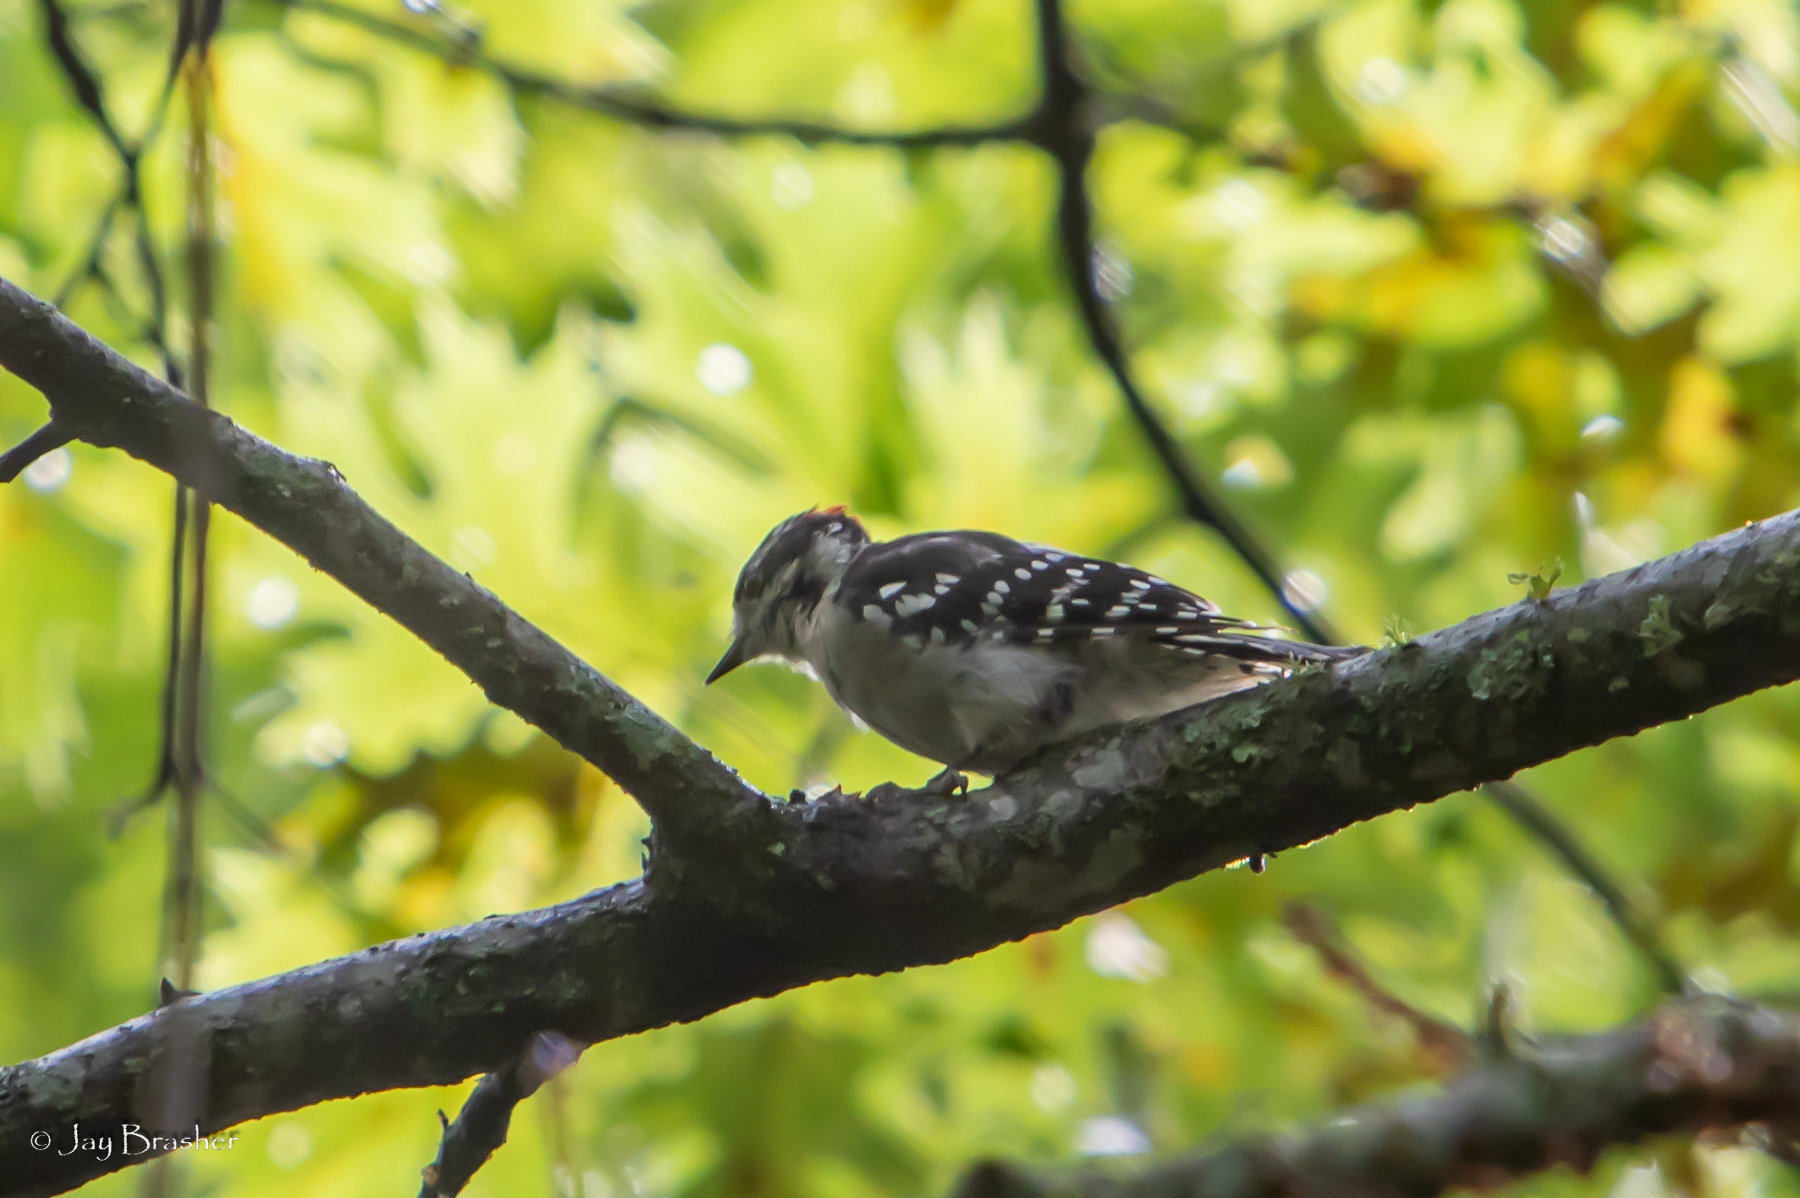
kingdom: Animalia
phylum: Chordata
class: Aves
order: Piciformes
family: Picidae
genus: Dryobates
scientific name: Dryobates pubescens
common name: Downy woodpecker
